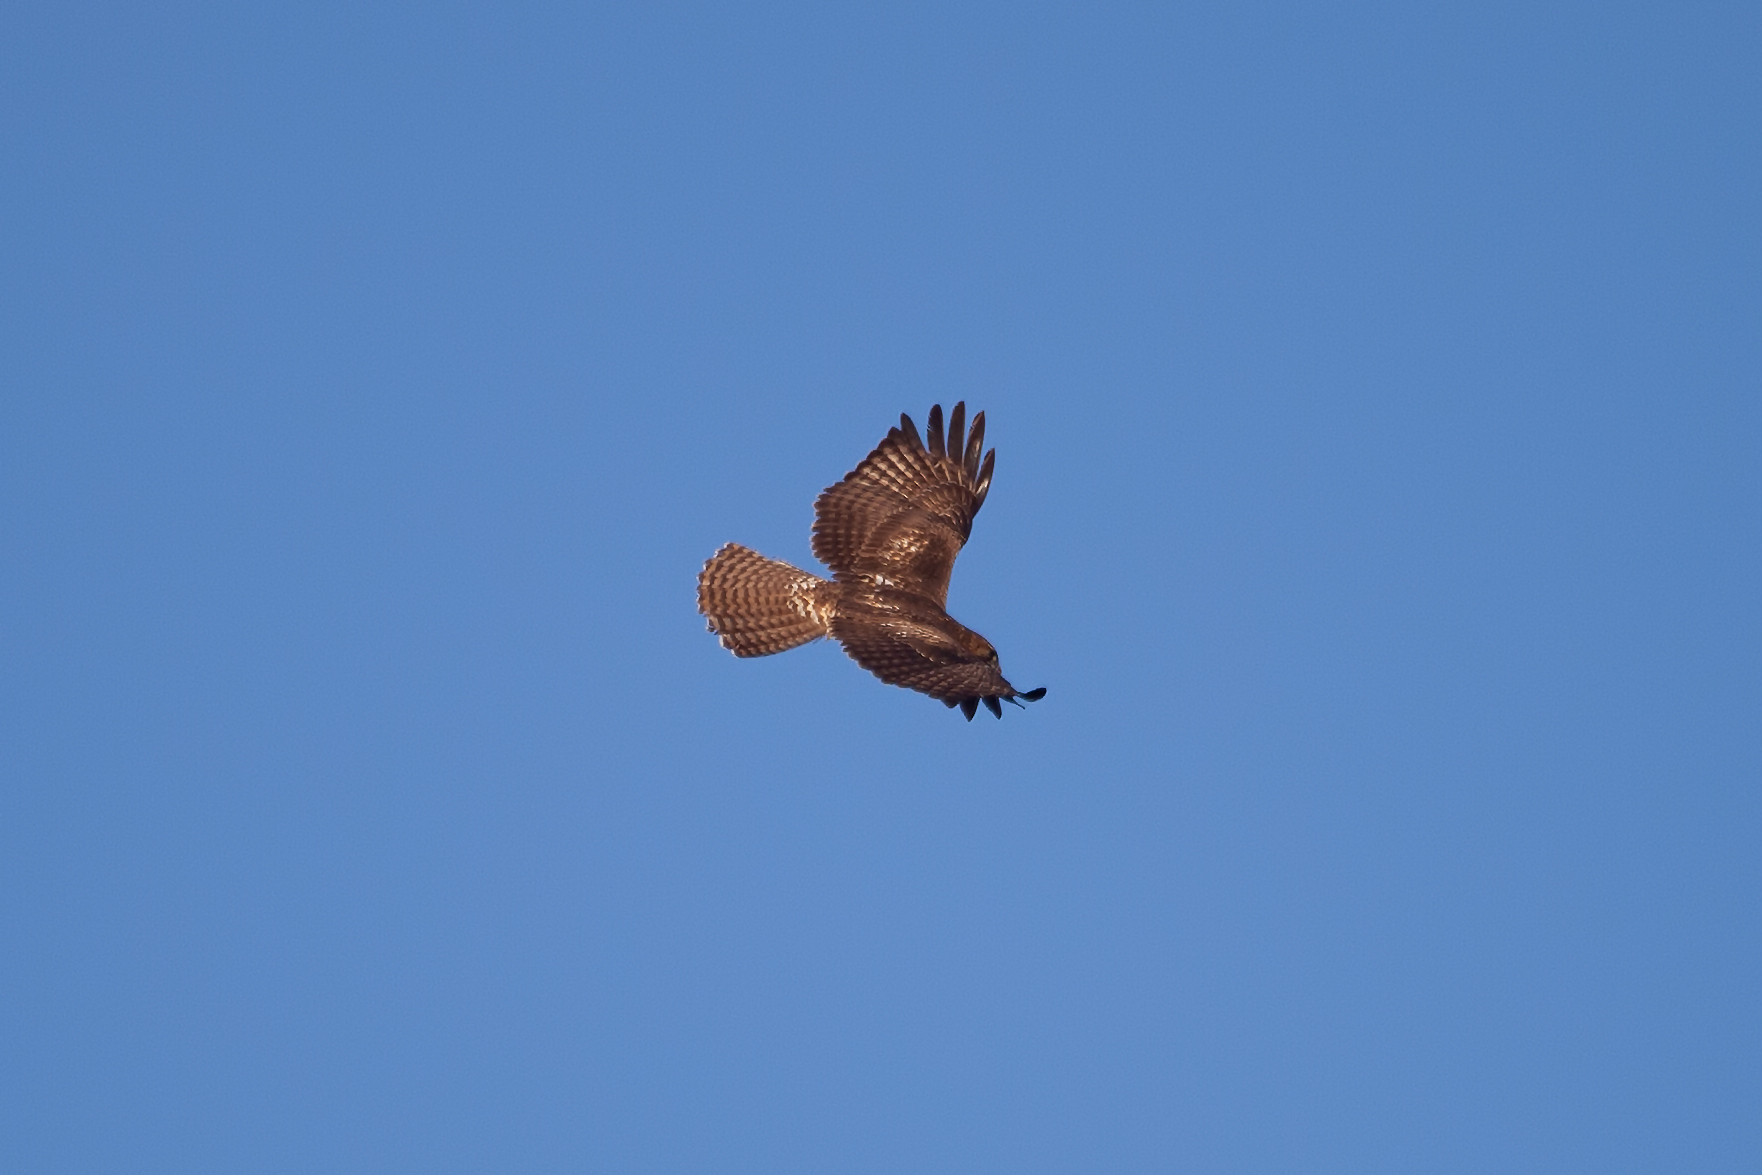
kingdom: Animalia
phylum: Chordata
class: Aves
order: Accipitriformes
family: Accipitridae
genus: Buteo
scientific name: Buteo jamaicensis
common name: Red-tailed hawk
